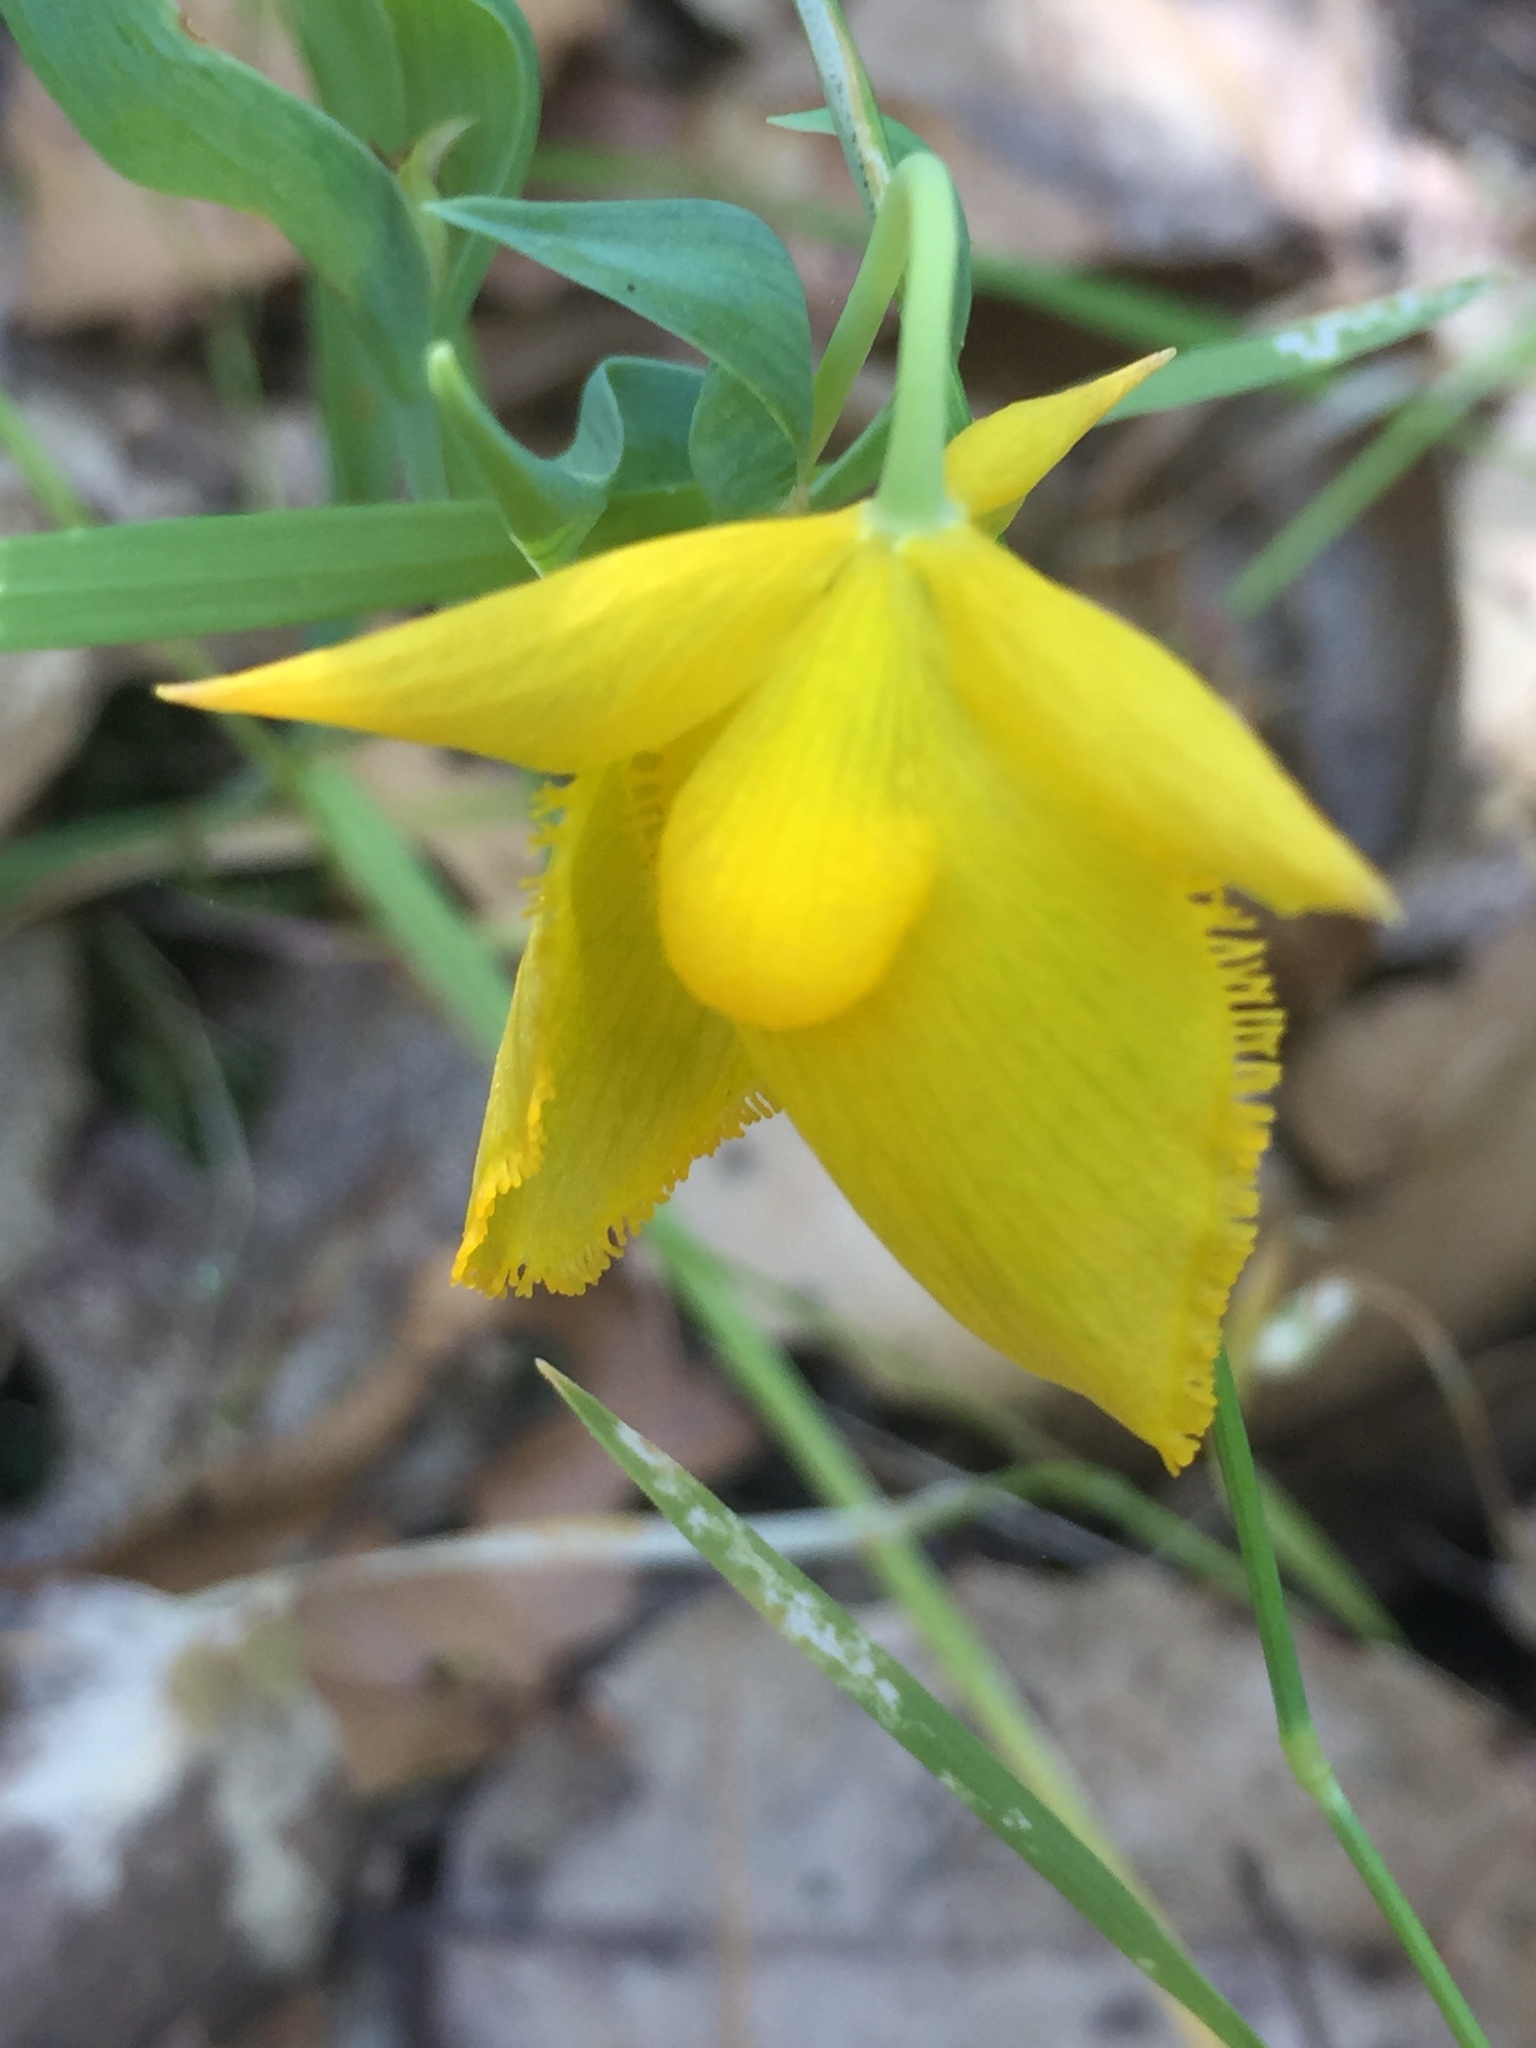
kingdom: Plantae
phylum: Tracheophyta
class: Liliopsida
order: Liliales
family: Liliaceae
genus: Calochortus
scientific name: Calochortus amabilis
